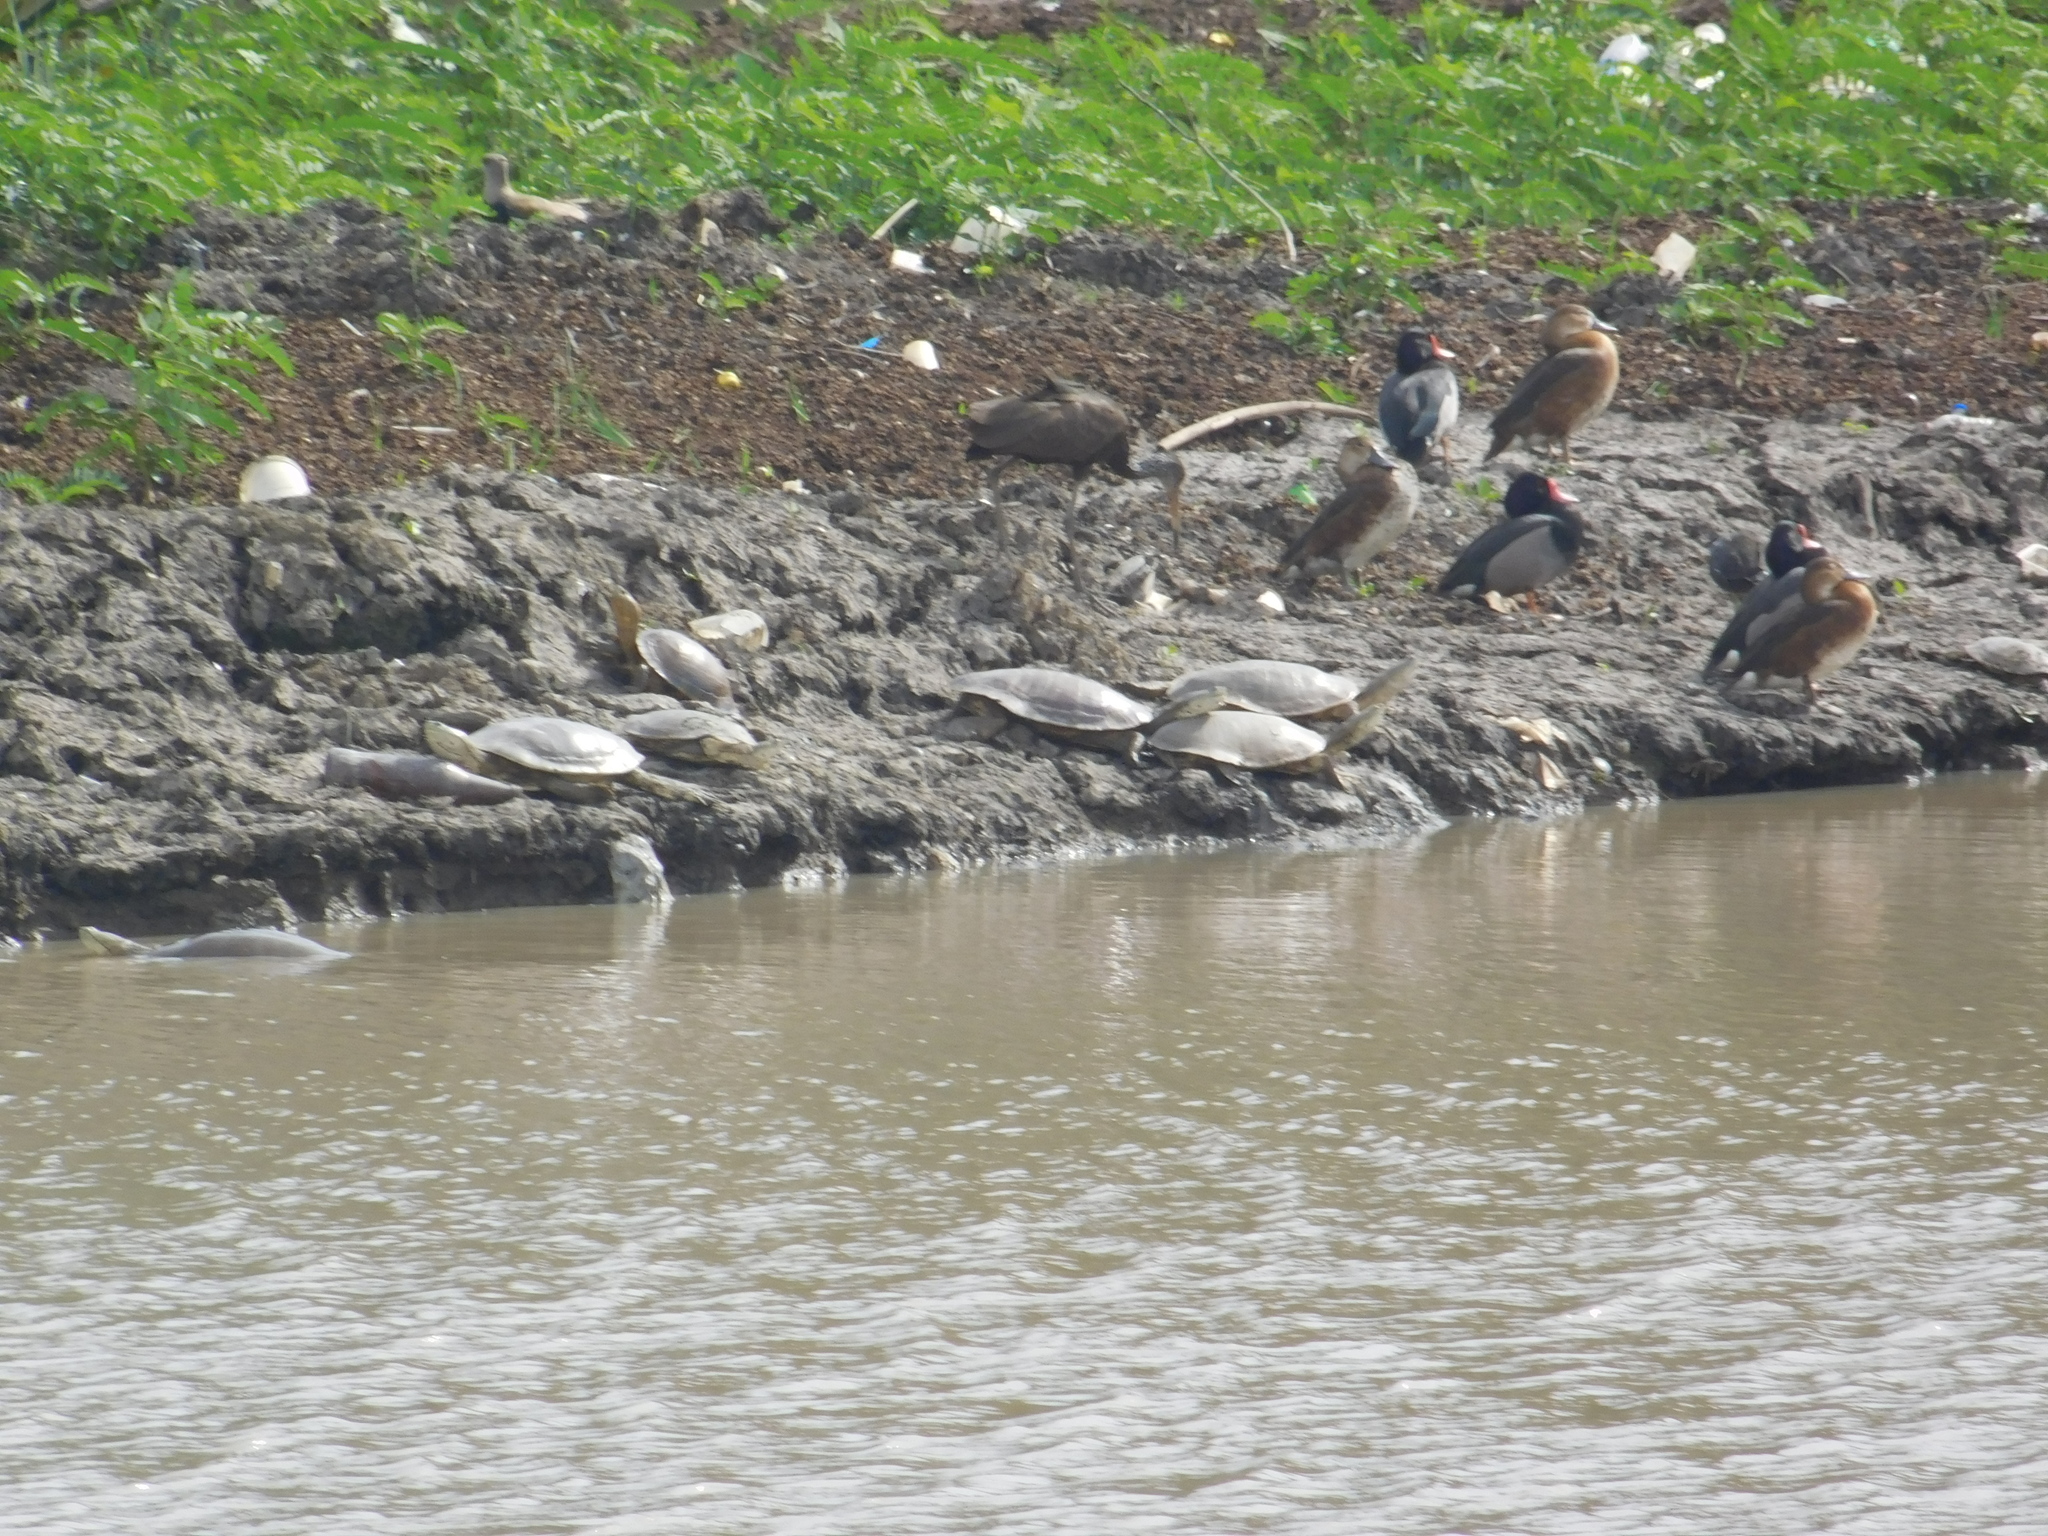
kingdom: Animalia
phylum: Chordata
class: Testudines
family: Chelidae
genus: Phrynops
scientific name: Phrynops hilarii
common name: Side-necked turtle of saint hillaire
